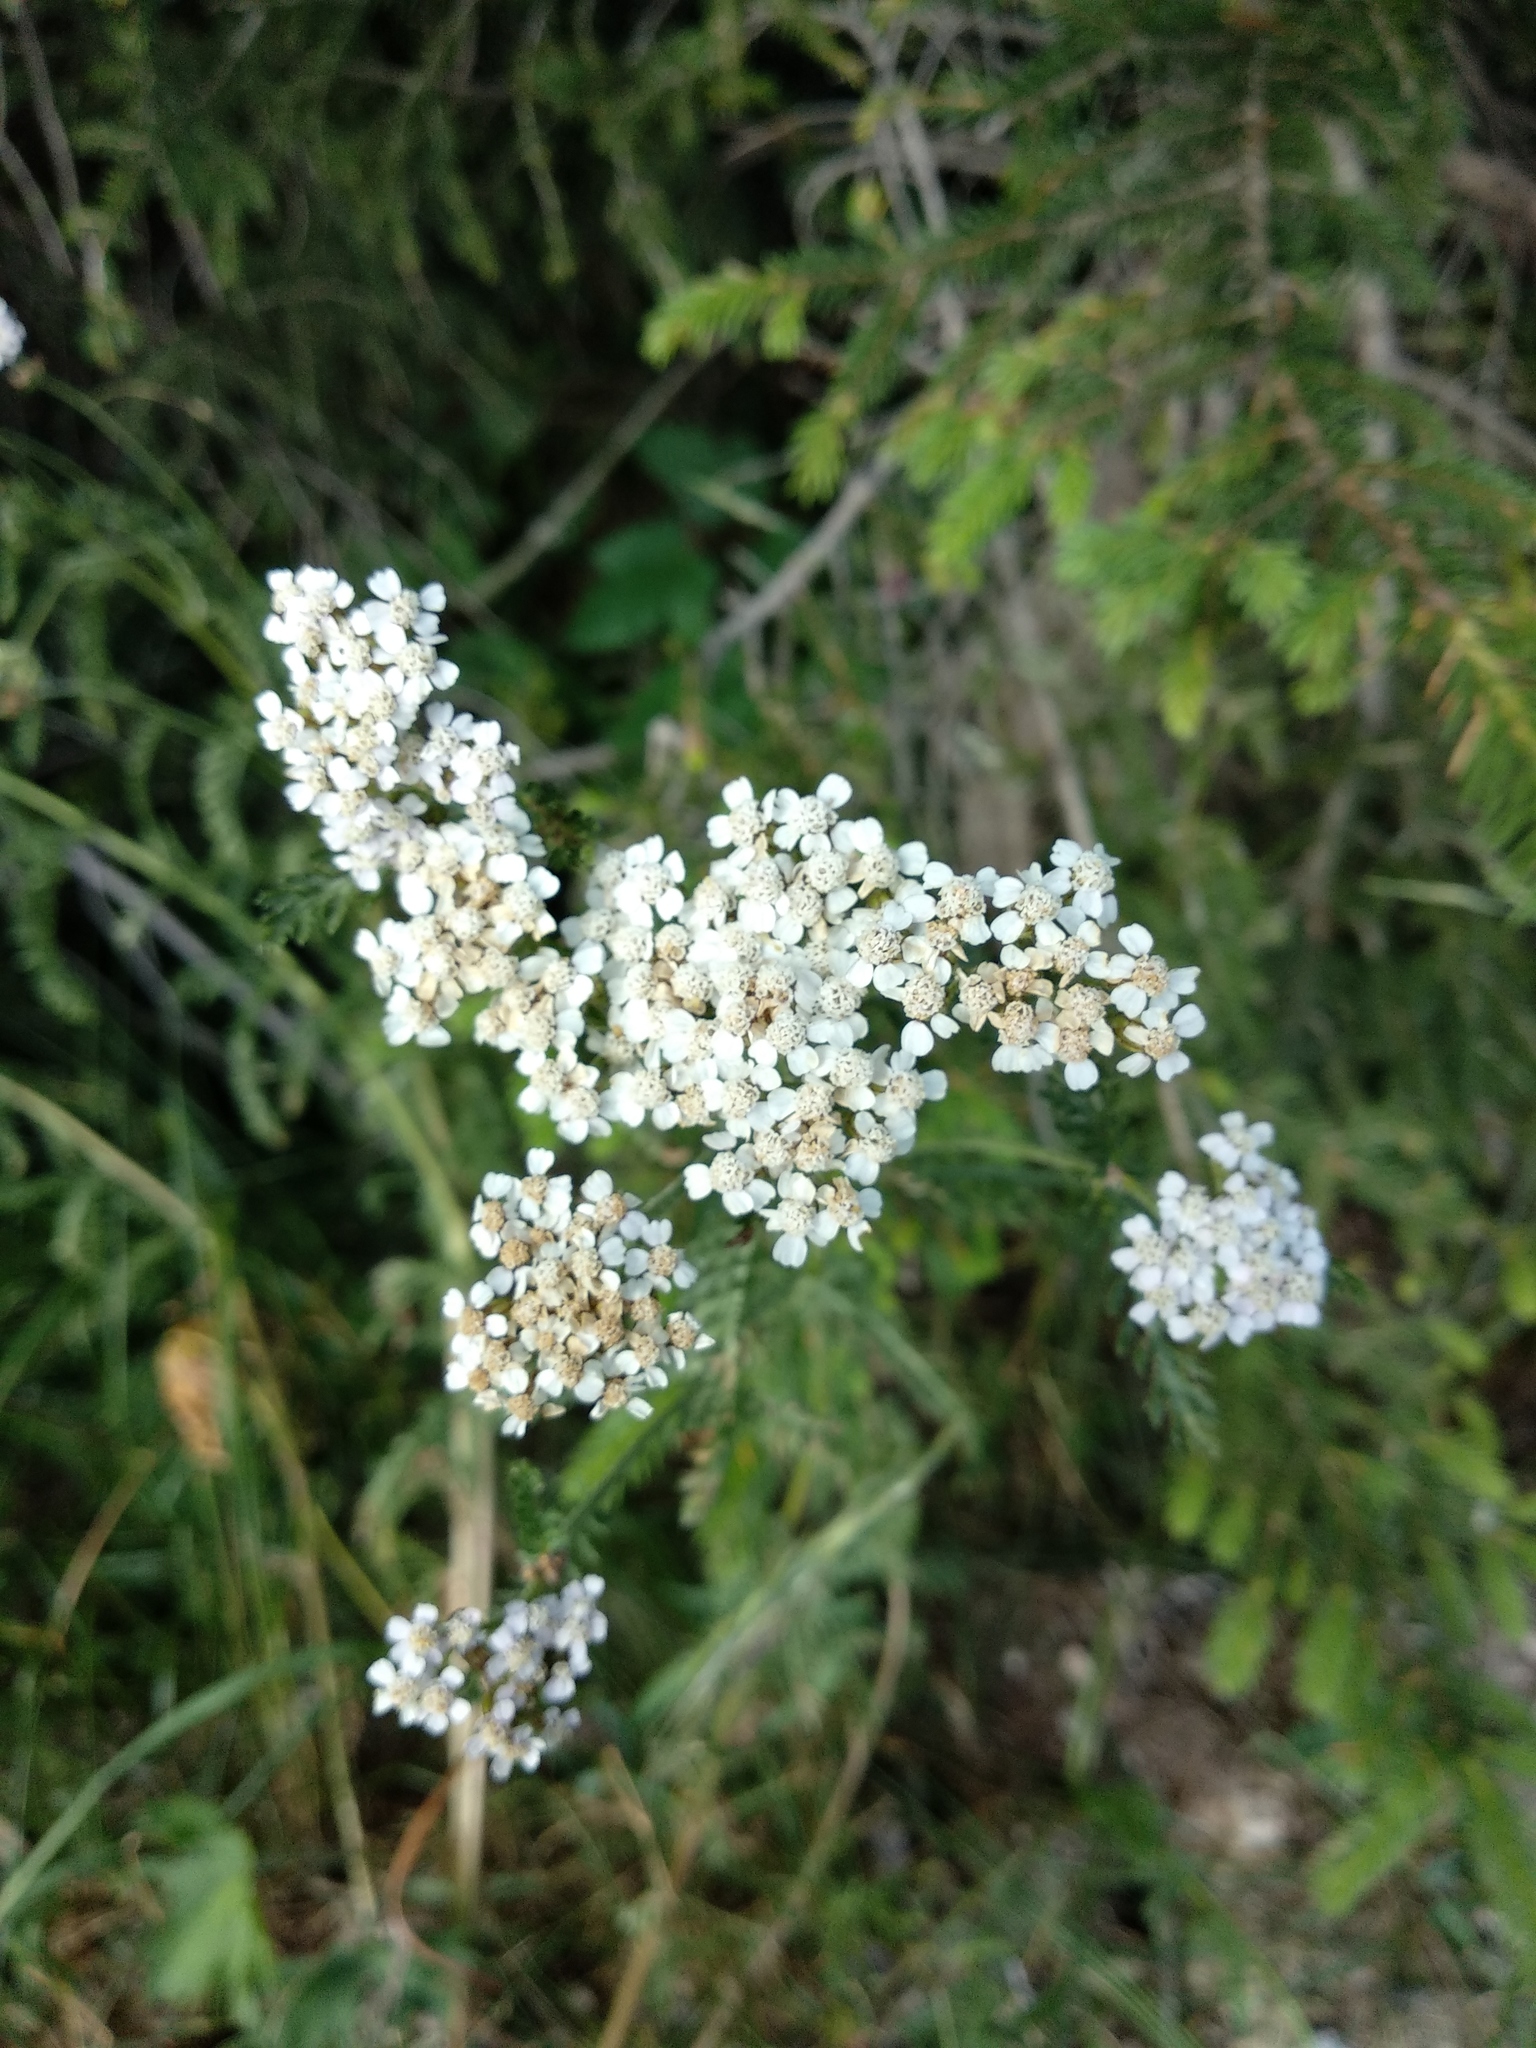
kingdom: Plantae
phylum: Tracheophyta
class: Magnoliopsida
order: Asterales
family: Asteraceae
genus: Achillea
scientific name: Achillea millefolium
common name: Yarrow
